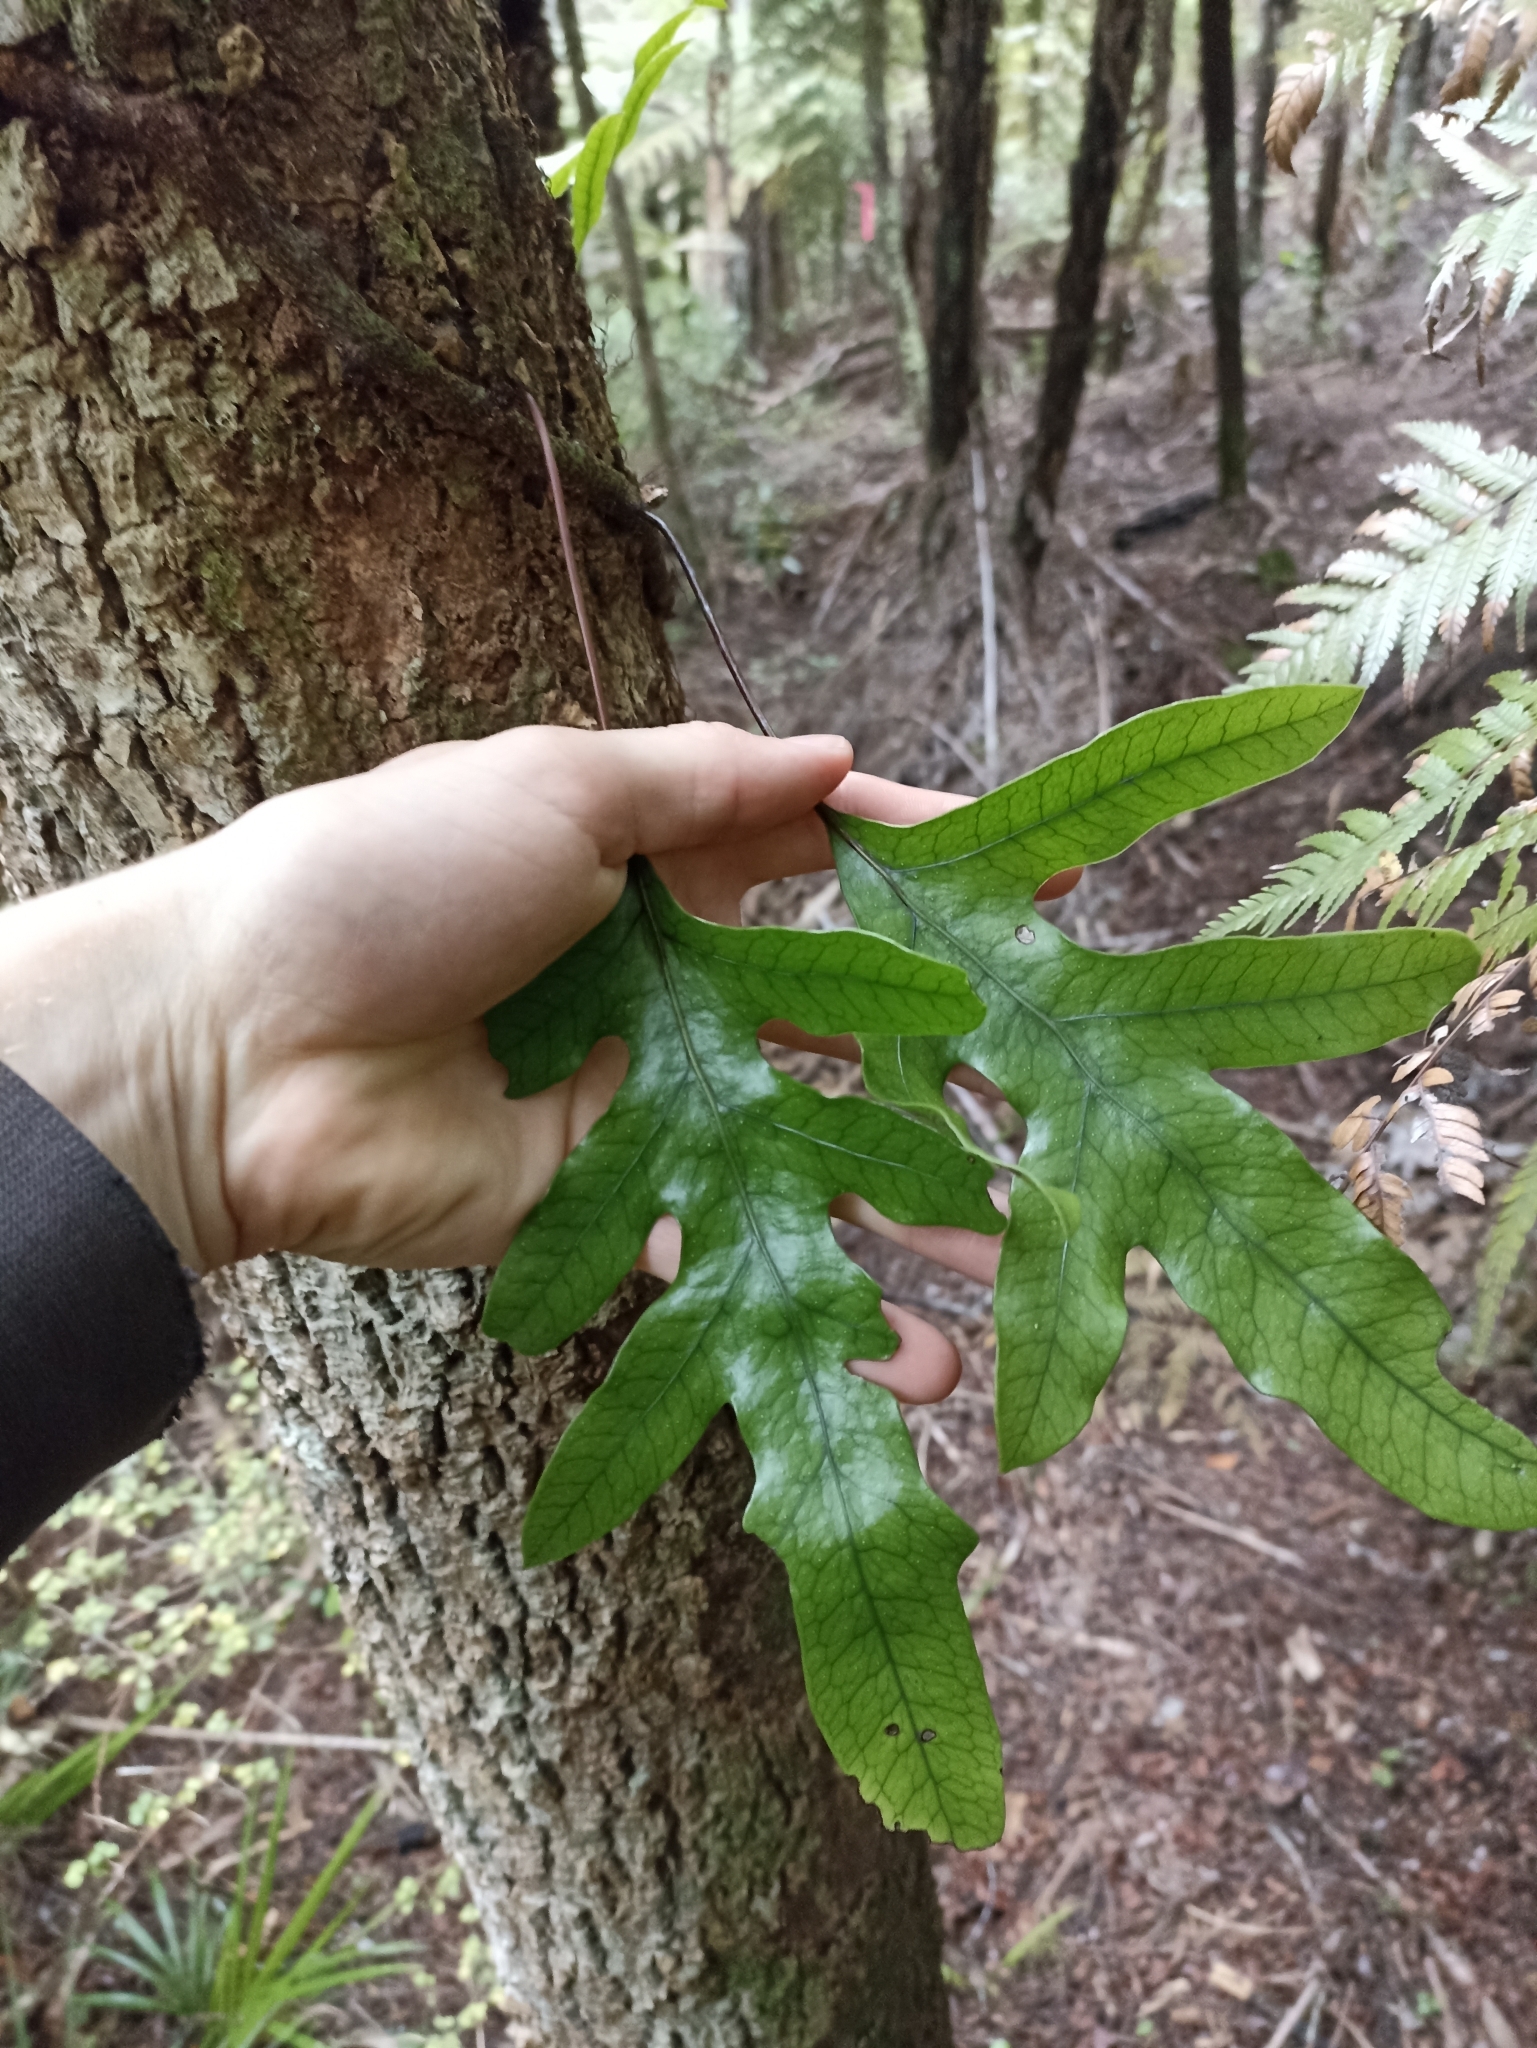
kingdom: Plantae
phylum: Tracheophyta
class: Polypodiopsida
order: Polypodiales
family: Polypodiaceae
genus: Lecanopteris
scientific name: Lecanopteris pustulata
